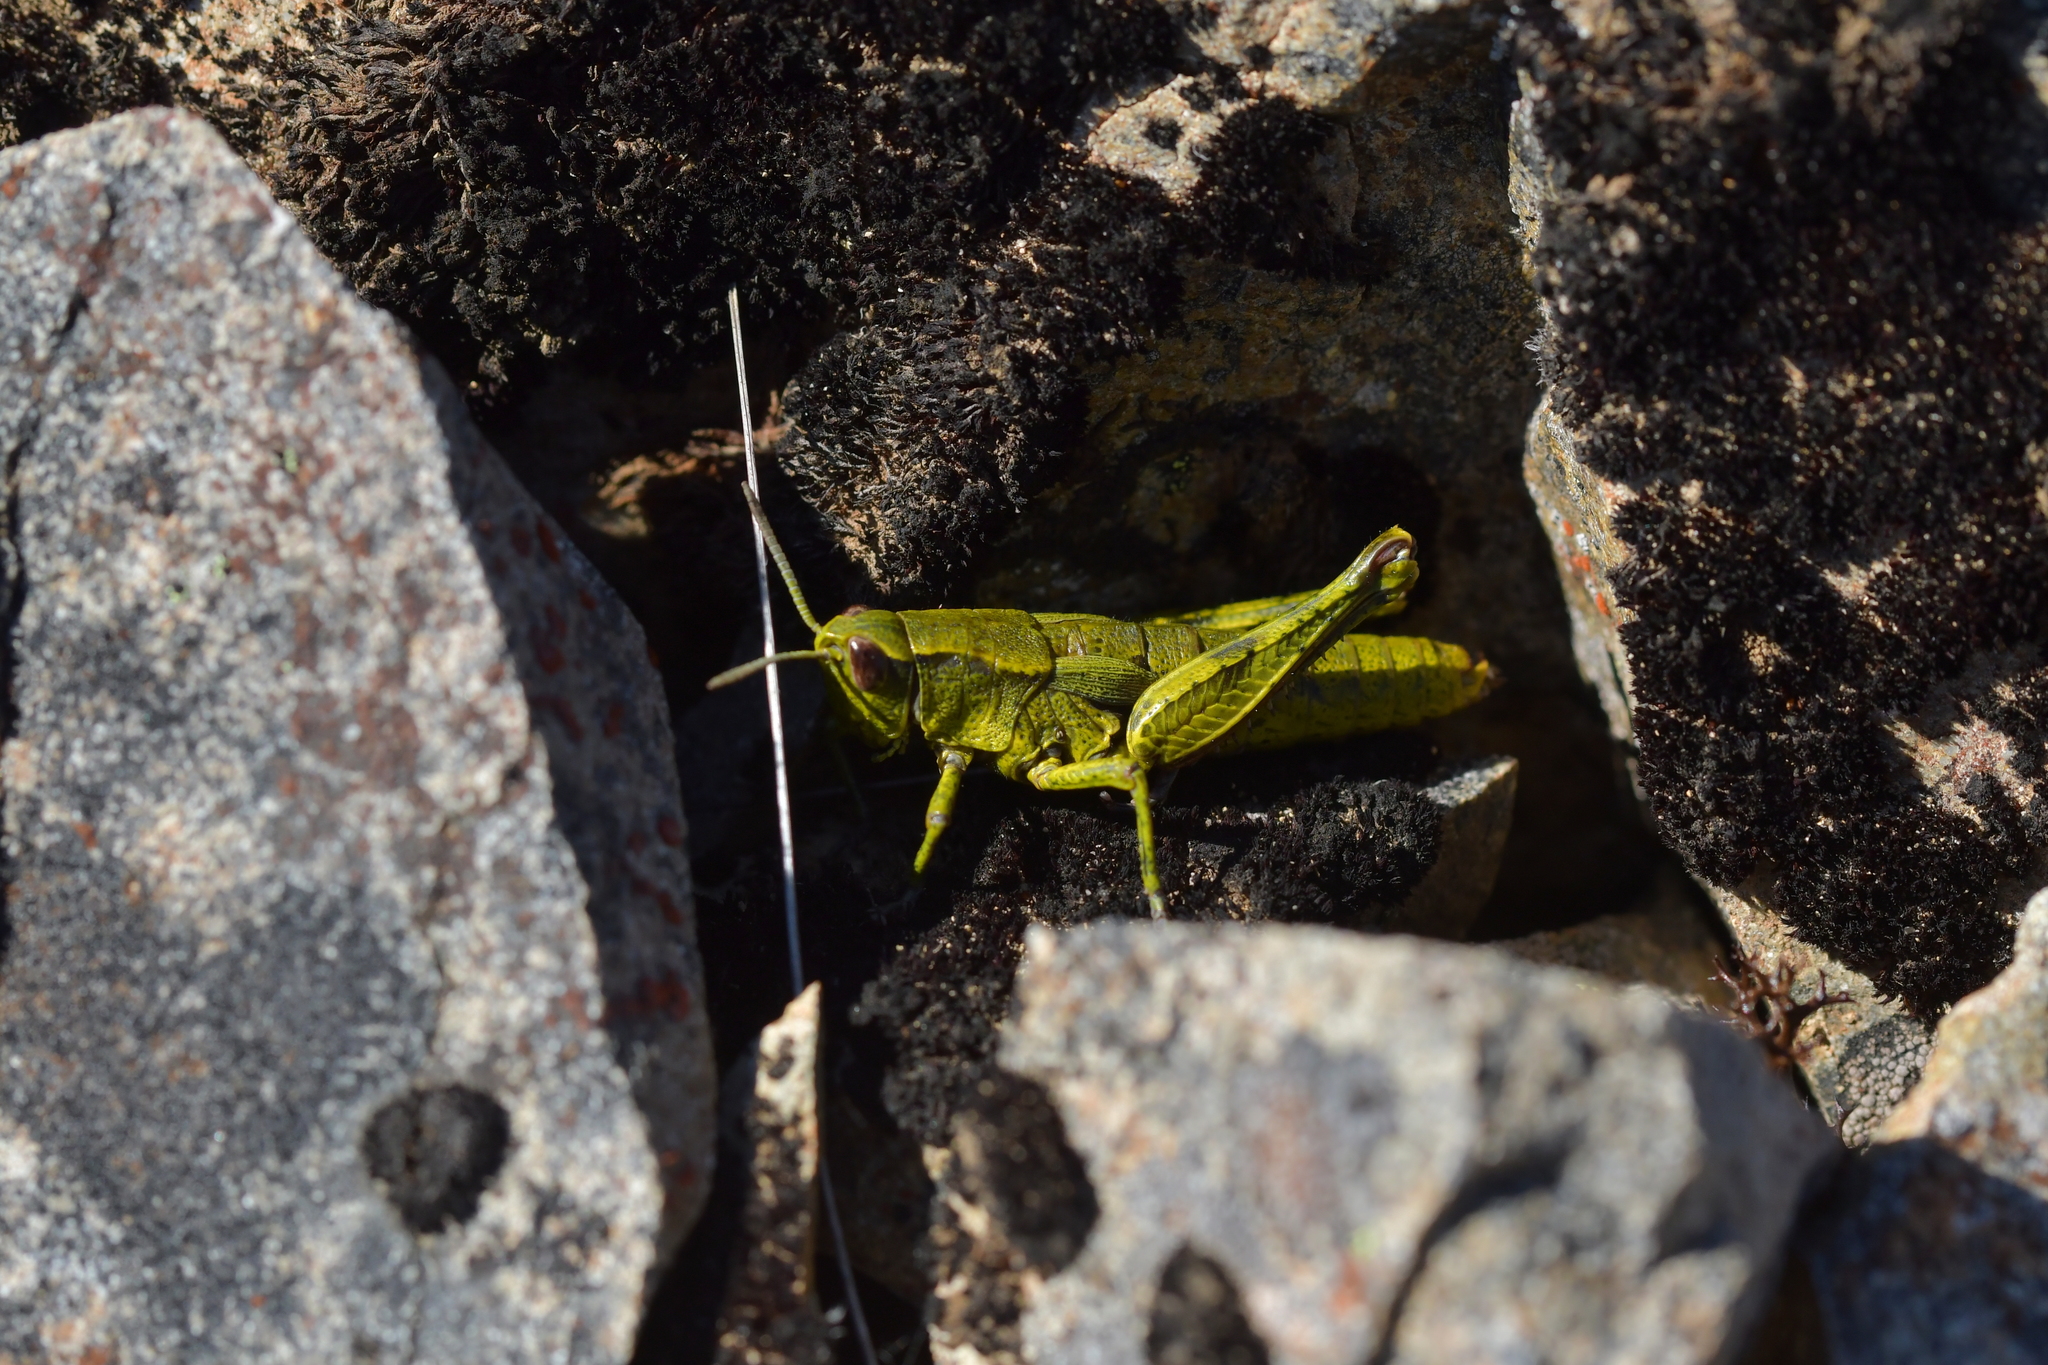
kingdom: Animalia
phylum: Arthropoda
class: Insecta
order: Orthoptera
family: Acrididae
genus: Sigaus
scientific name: Sigaus piliferus
